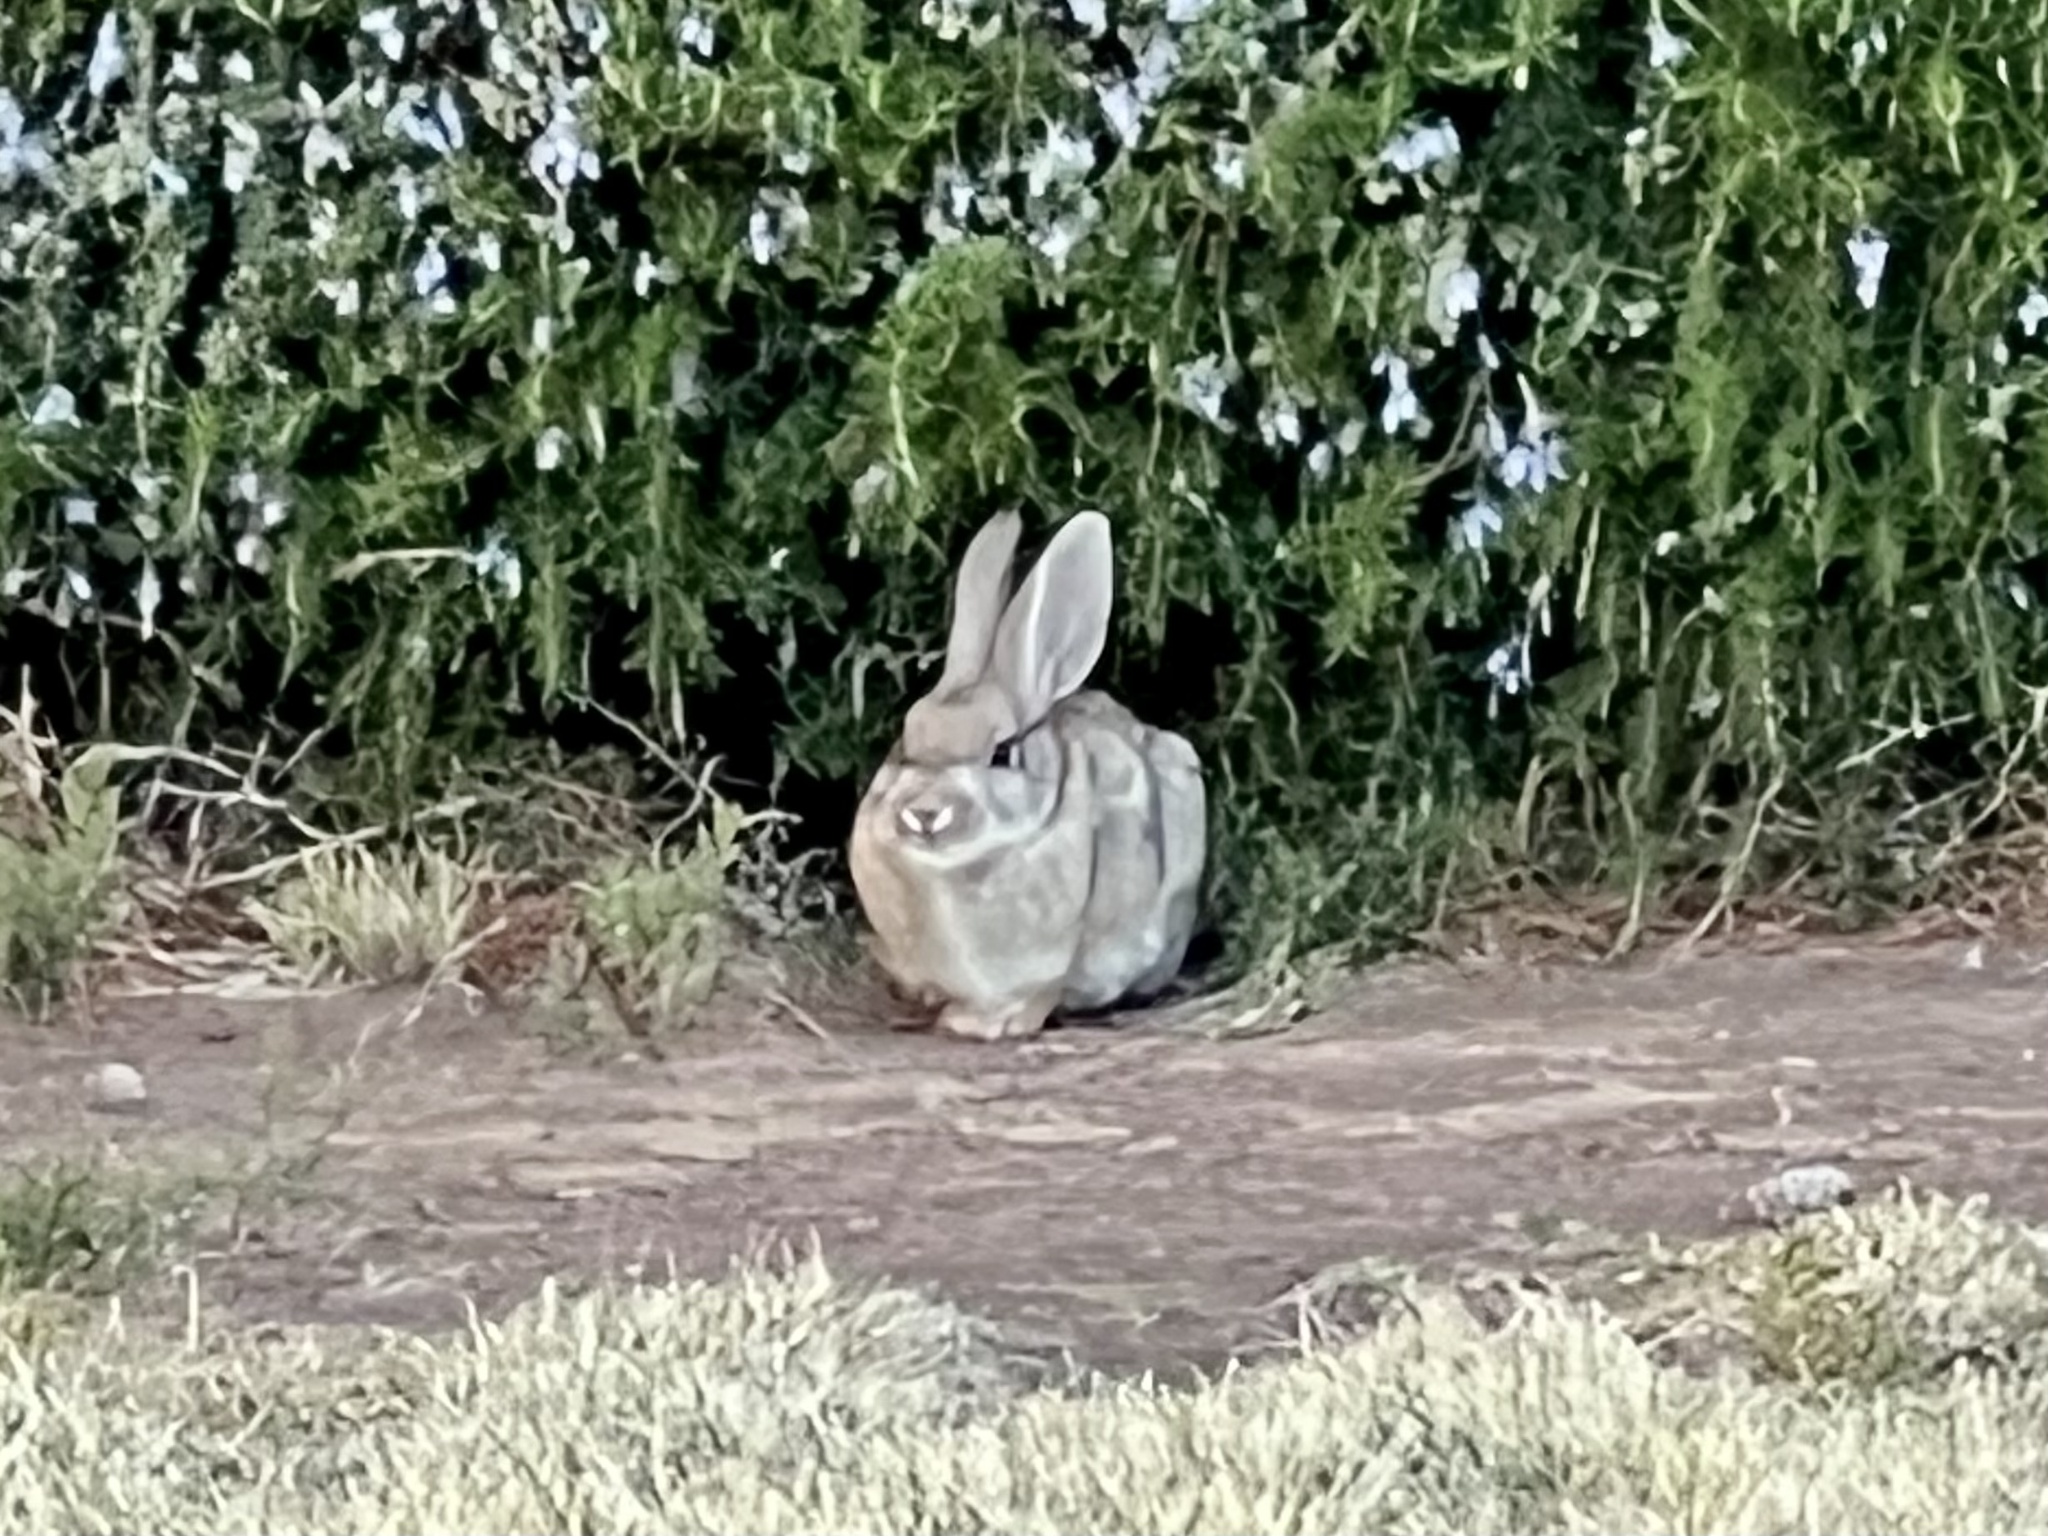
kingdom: Animalia
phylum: Chordata
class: Mammalia
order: Lagomorpha
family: Leporidae
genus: Sylvilagus
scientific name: Sylvilagus audubonii
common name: Desert cottontail
